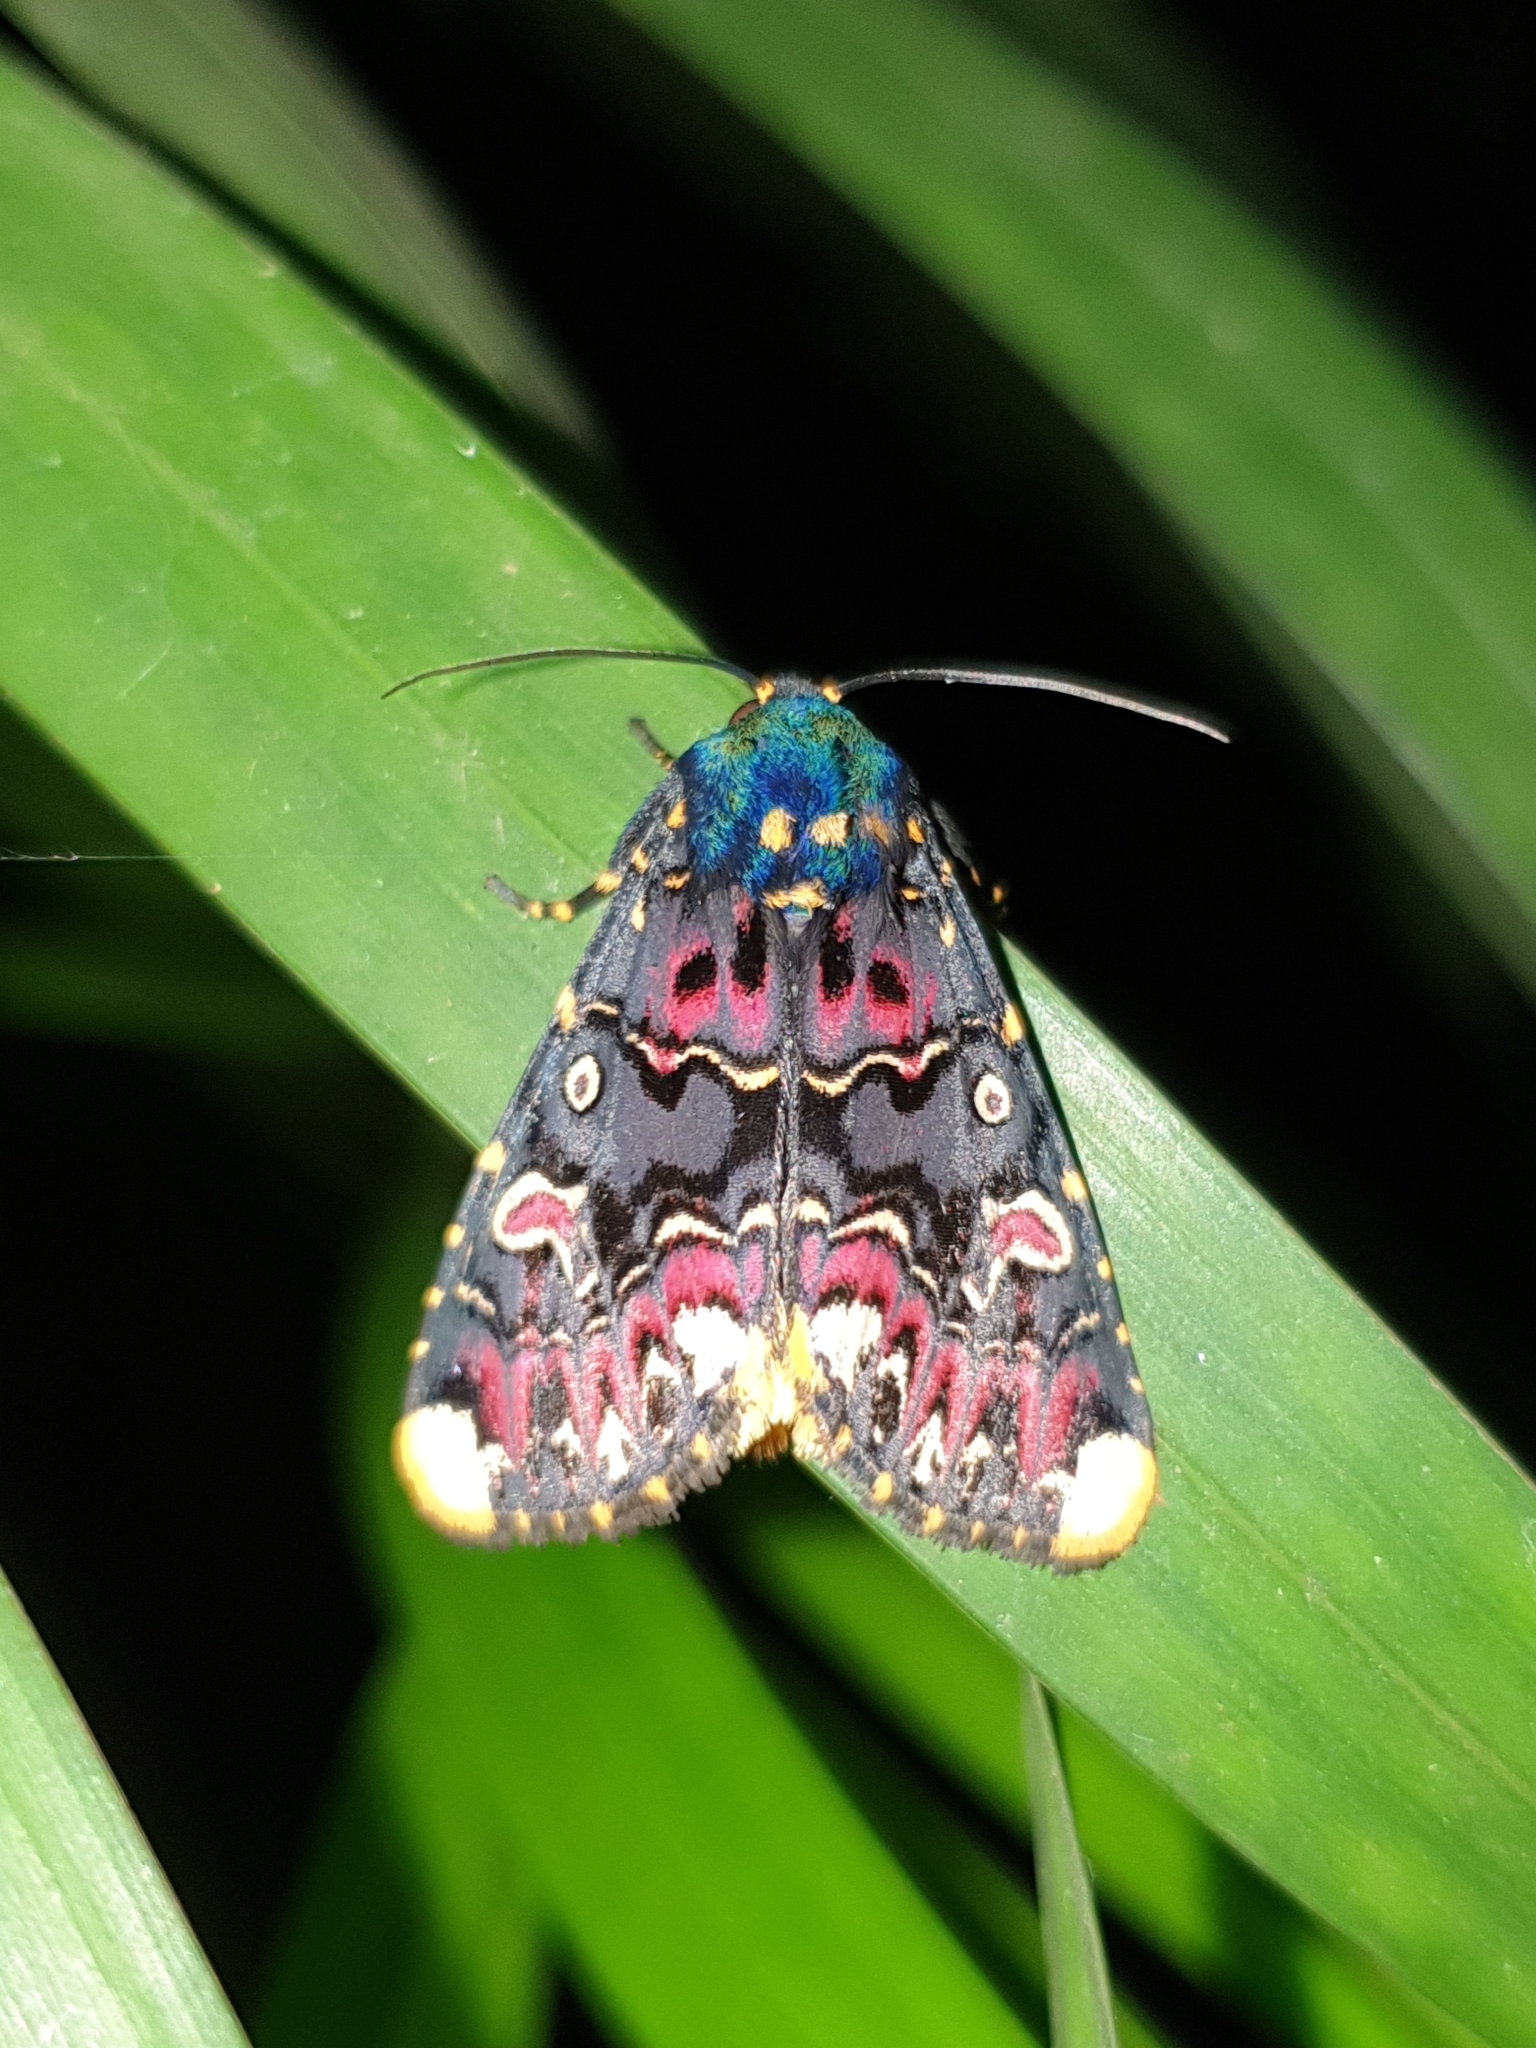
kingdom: Animalia
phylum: Arthropoda
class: Insecta
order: Lepidoptera
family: Noctuidae
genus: Polytela
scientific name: Polytela gloriosae
